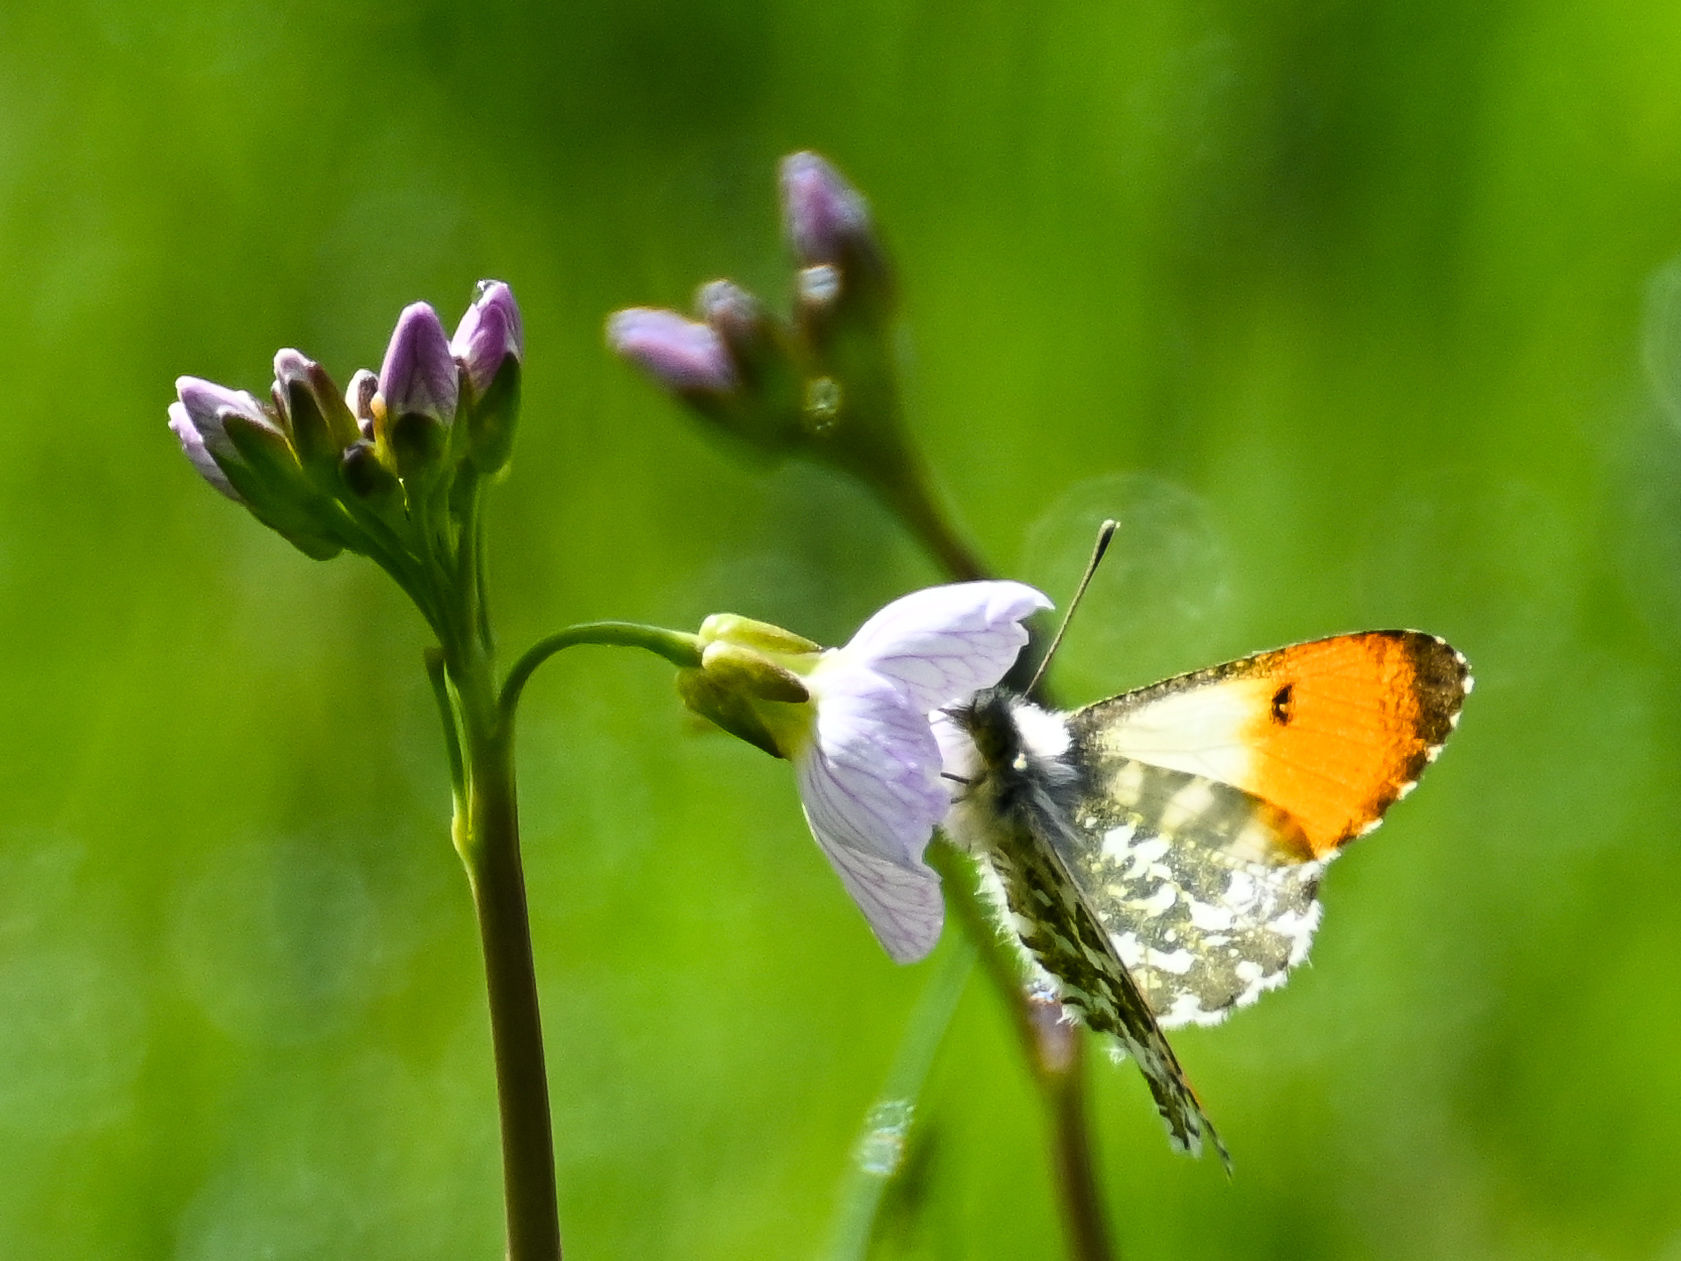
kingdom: Animalia
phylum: Arthropoda
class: Insecta
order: Lepidoptera
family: Pieridae
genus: Anthocharis
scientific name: Anthocharis cardamines
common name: Orange-tip
